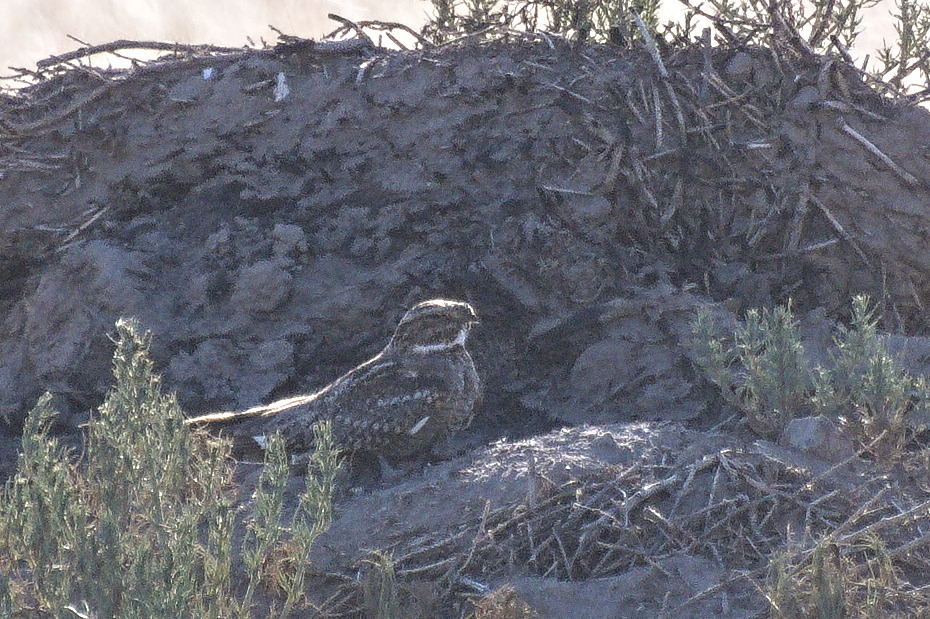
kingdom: Animalia
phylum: Chordata
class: Aves
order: Caprimulgiformes
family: Caprimulgidae
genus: Chordeiles
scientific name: Chordeiles acutipennis
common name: Lesser nighthawk
